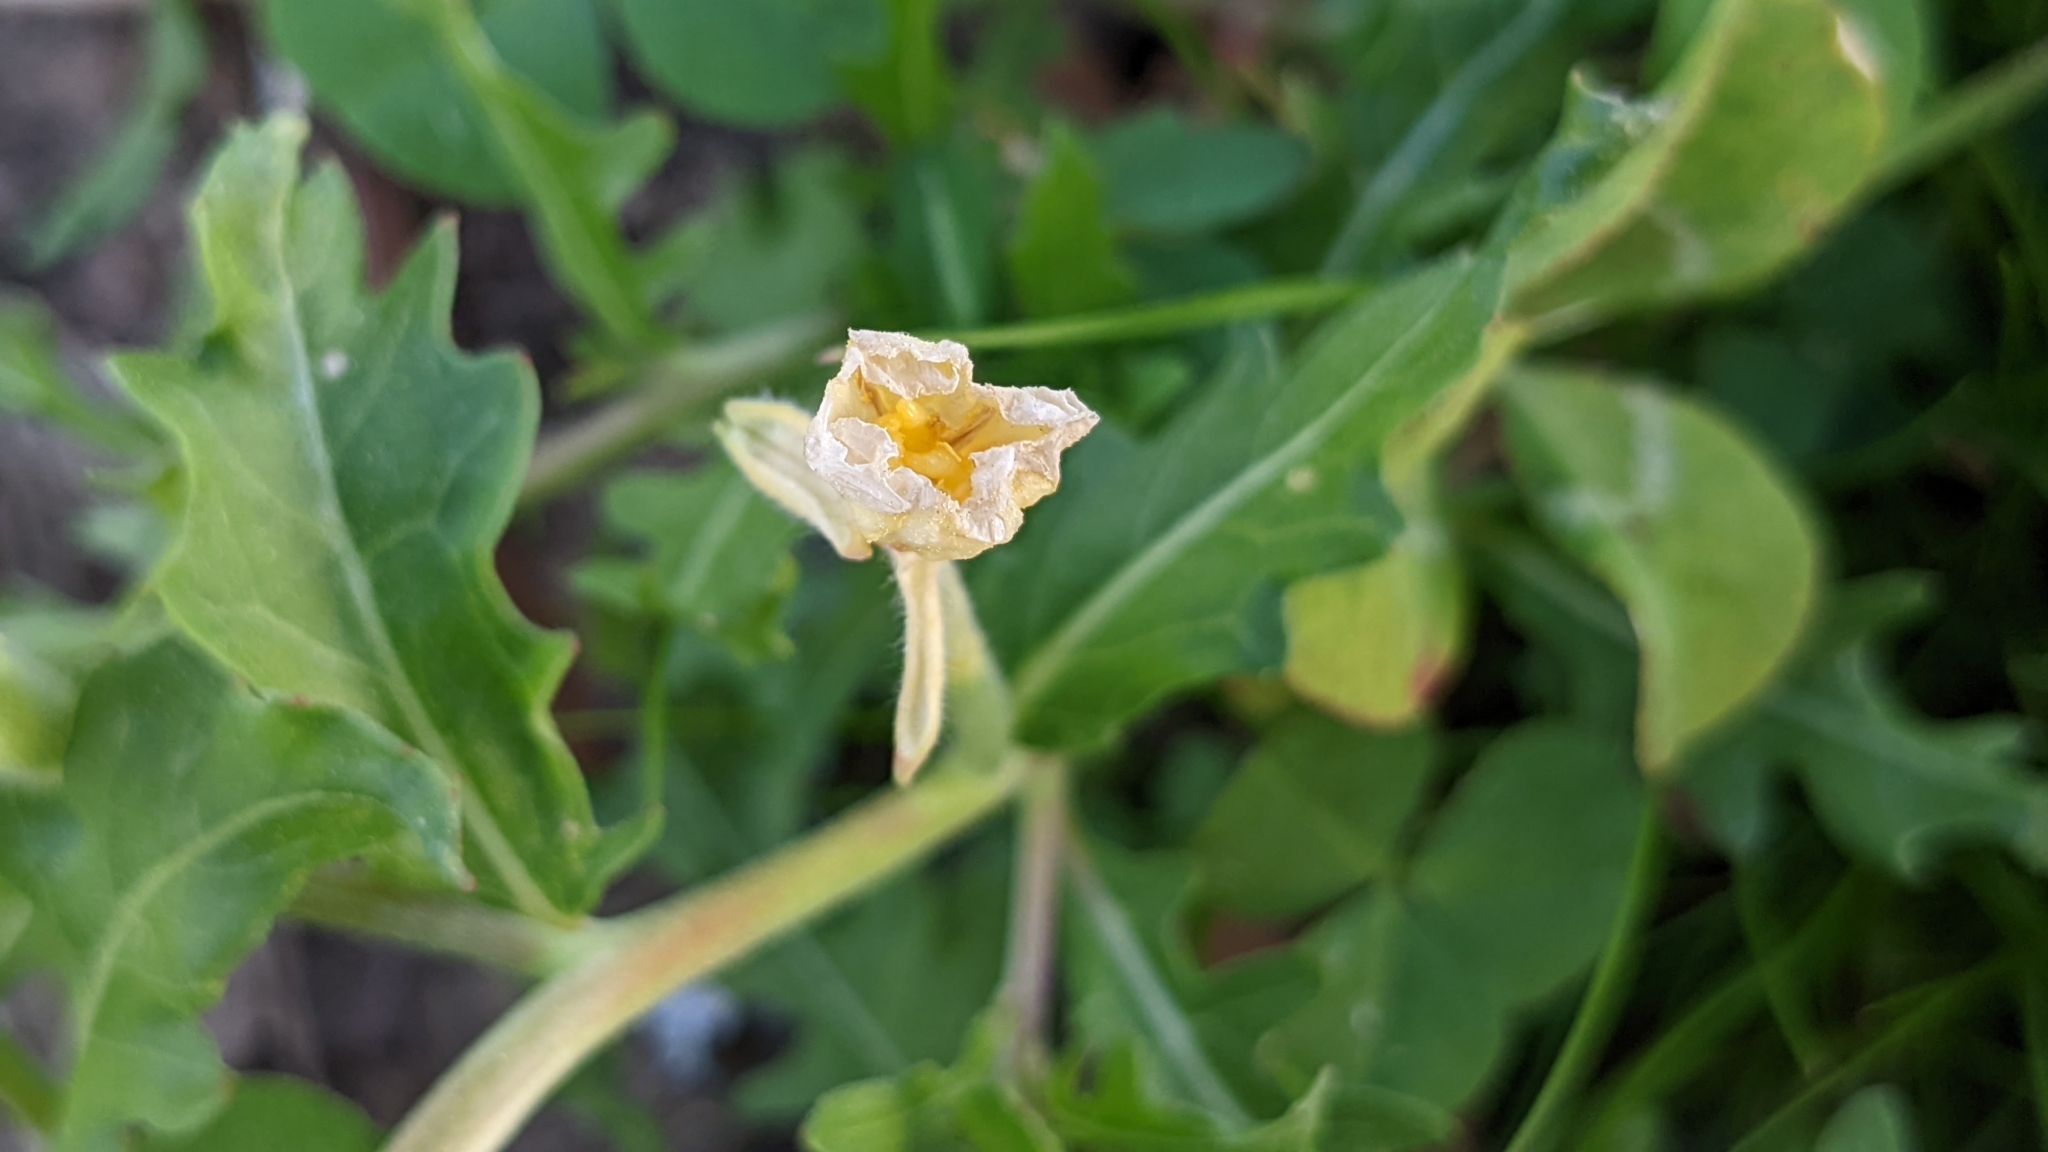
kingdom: Plantae
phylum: Tracheophyta
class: Magnoliopsida
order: Myrtales
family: Onagraceae
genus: Oenothera
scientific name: Oenothera laciniata
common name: Cut-leaved evening-primrose
